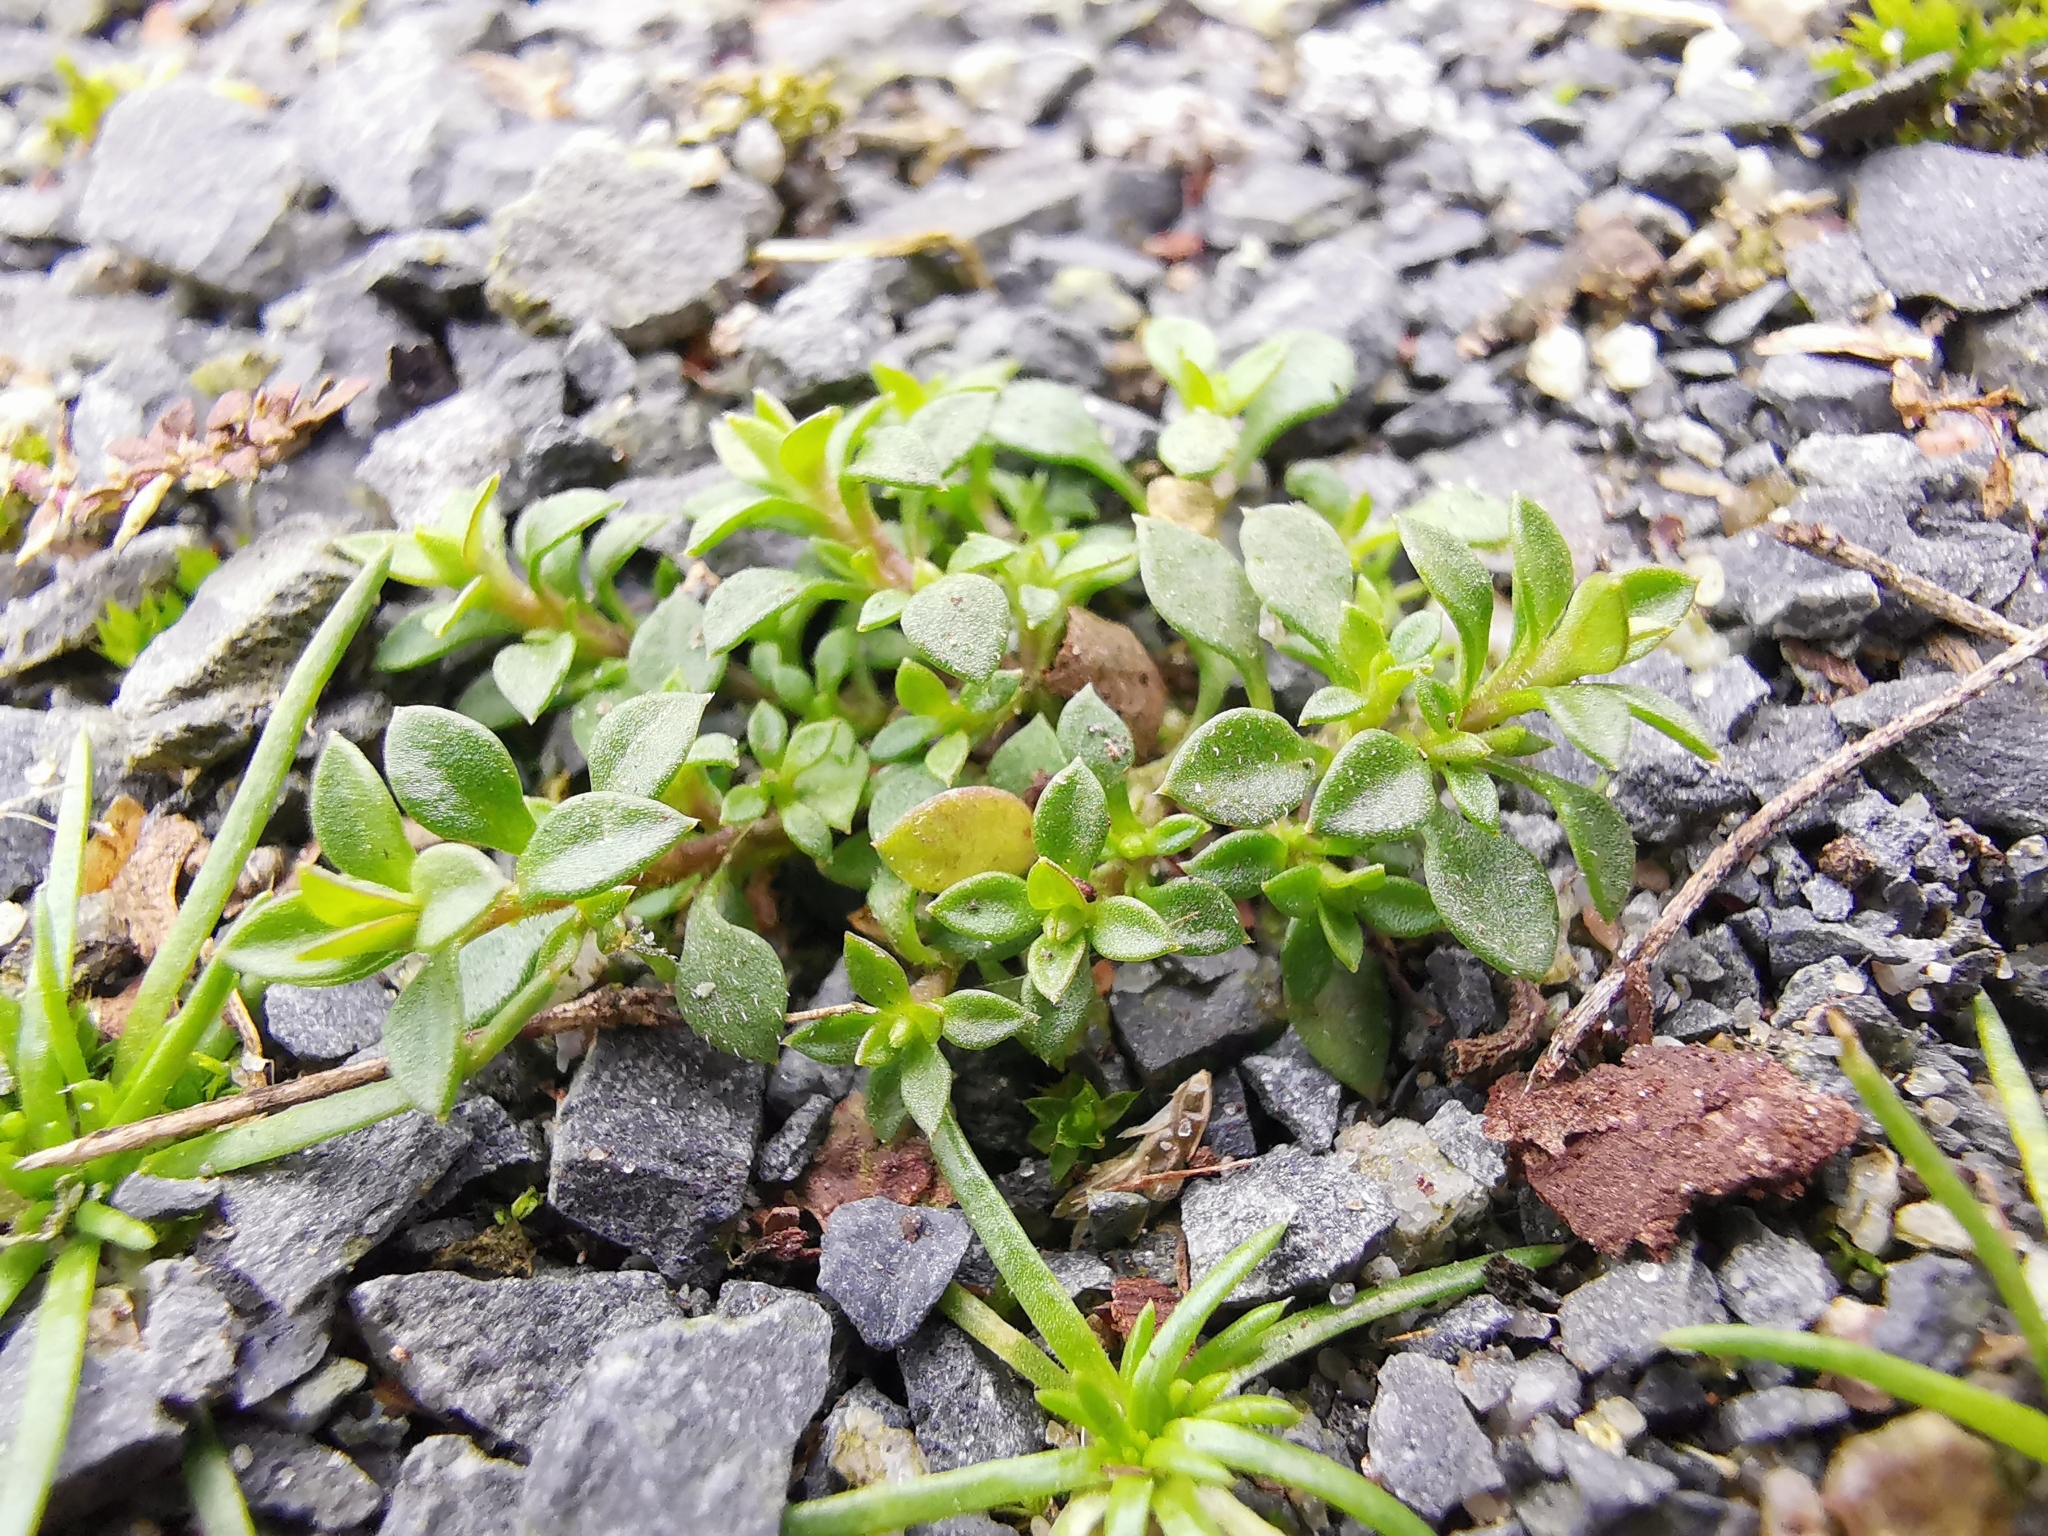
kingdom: Plantae
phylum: Tracheophyta
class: Magnoliopsida
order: Caryophyllales
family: Caryophyllaceae
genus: Arenaria
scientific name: Arenaria serpyllifolia
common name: Thyme-leaved sandwort
